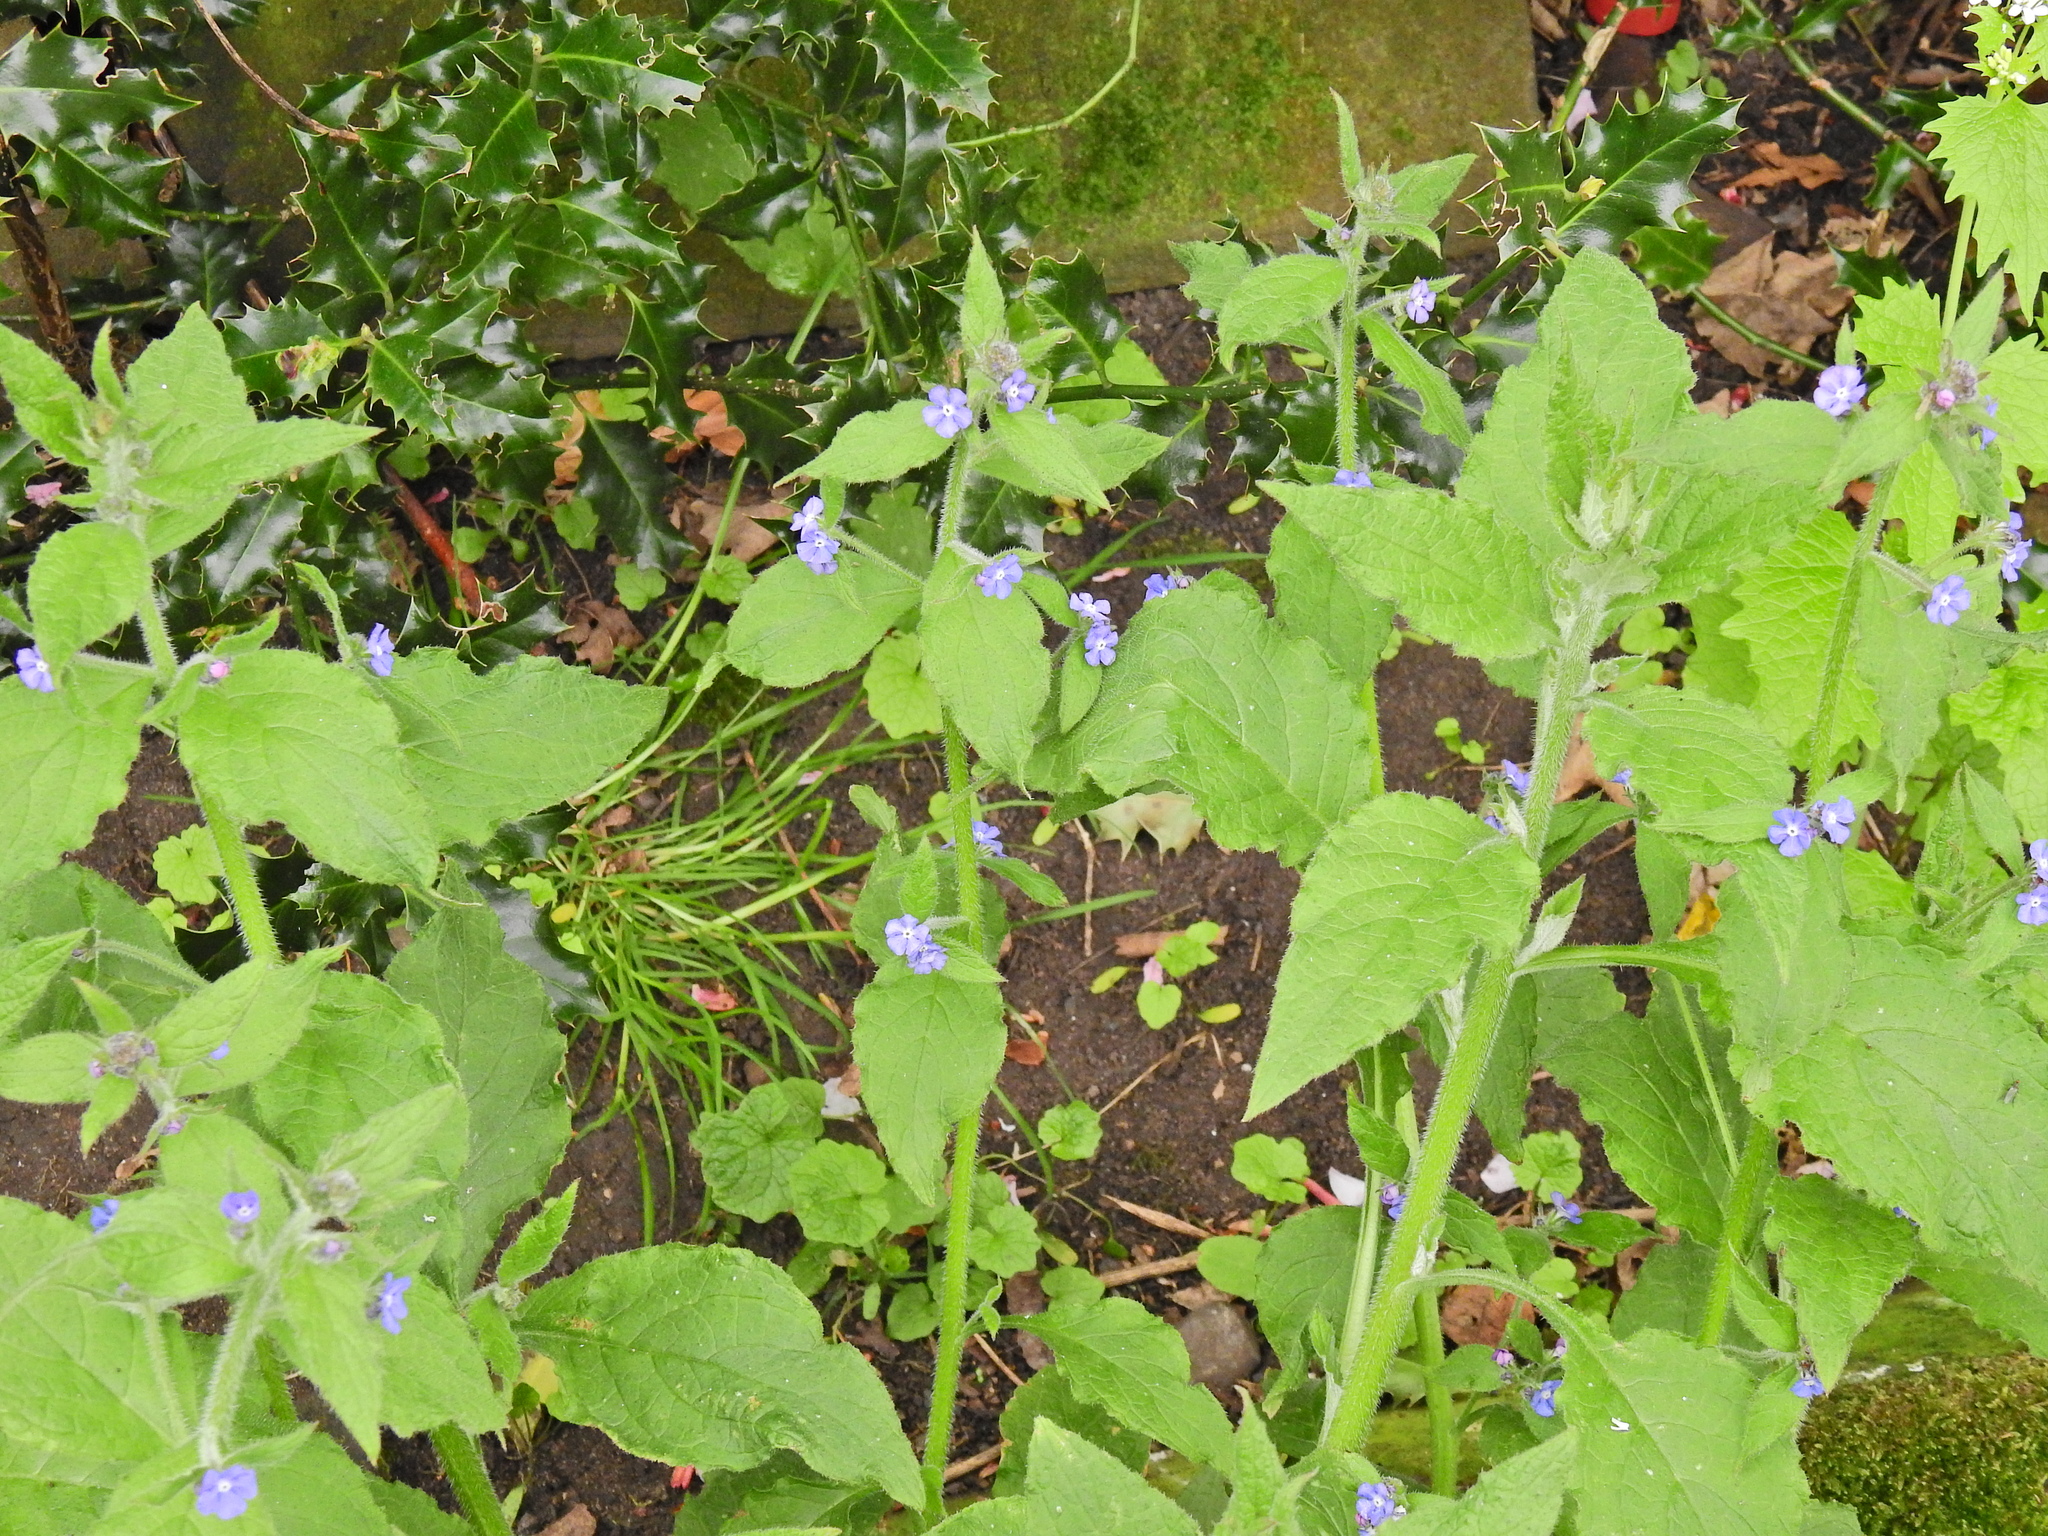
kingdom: Plantae
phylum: Tracheophyta
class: Magnoliopsida
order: Boraginales
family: Boraginaceae
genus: Pentaglottis
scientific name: Pentaglottis sempervirens
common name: Green alkanet
